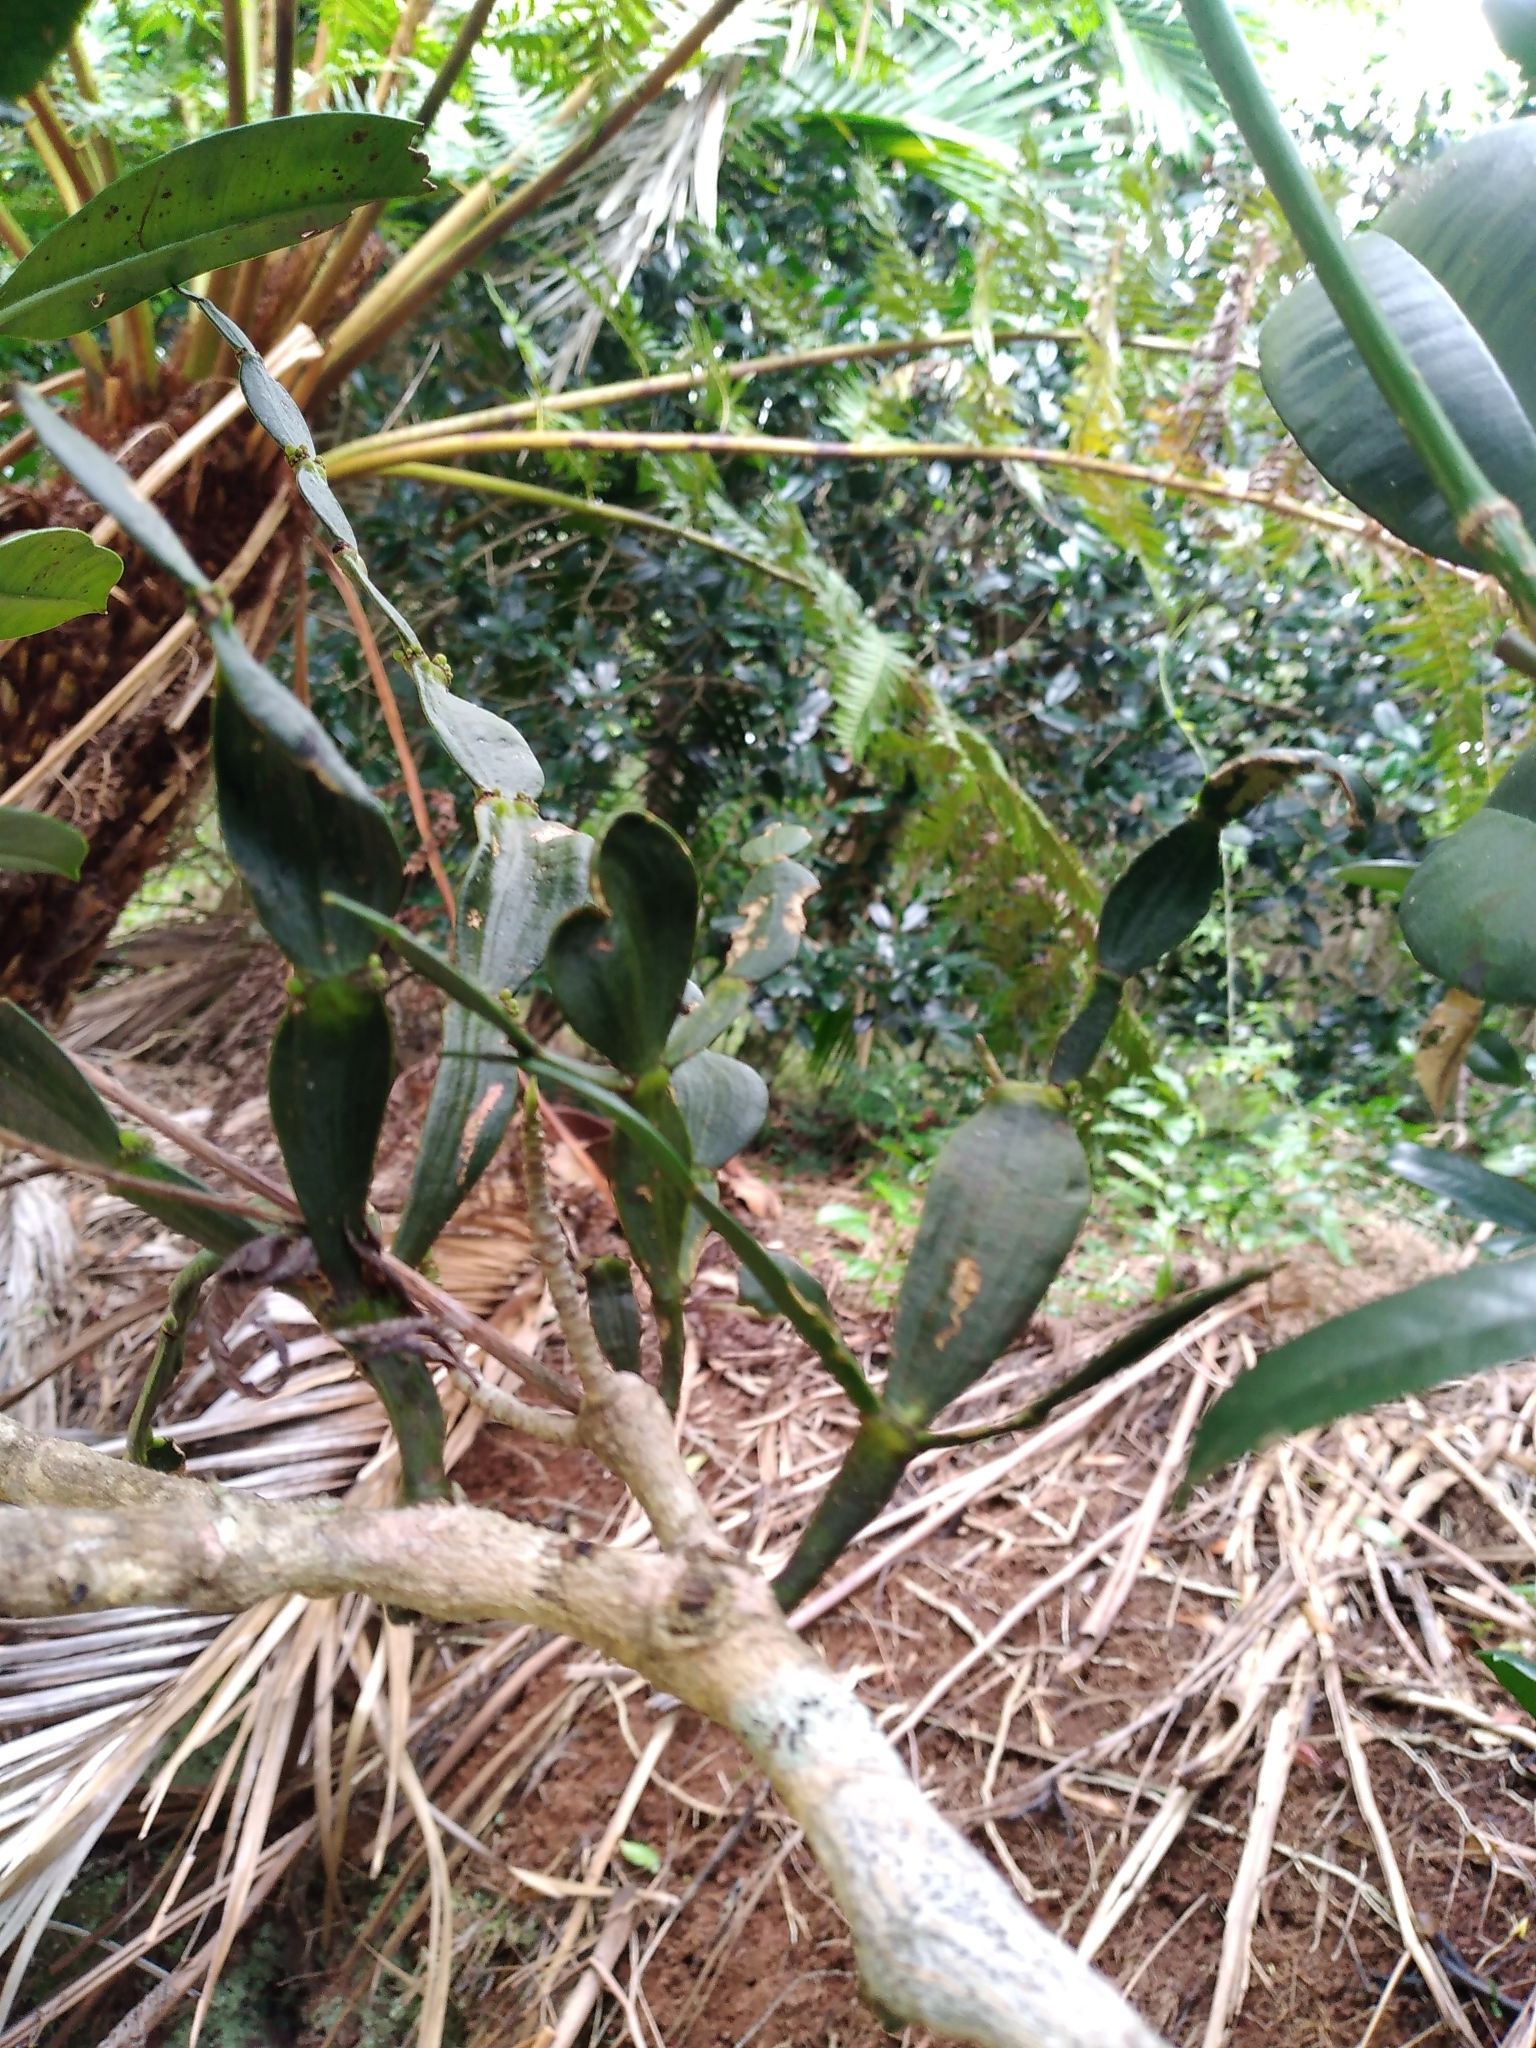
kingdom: Plantae
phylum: Tracheophyta
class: Magnoliopsida
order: Santalales
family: Viscaceae
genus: Korthalsella
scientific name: Korthalsella disticha
